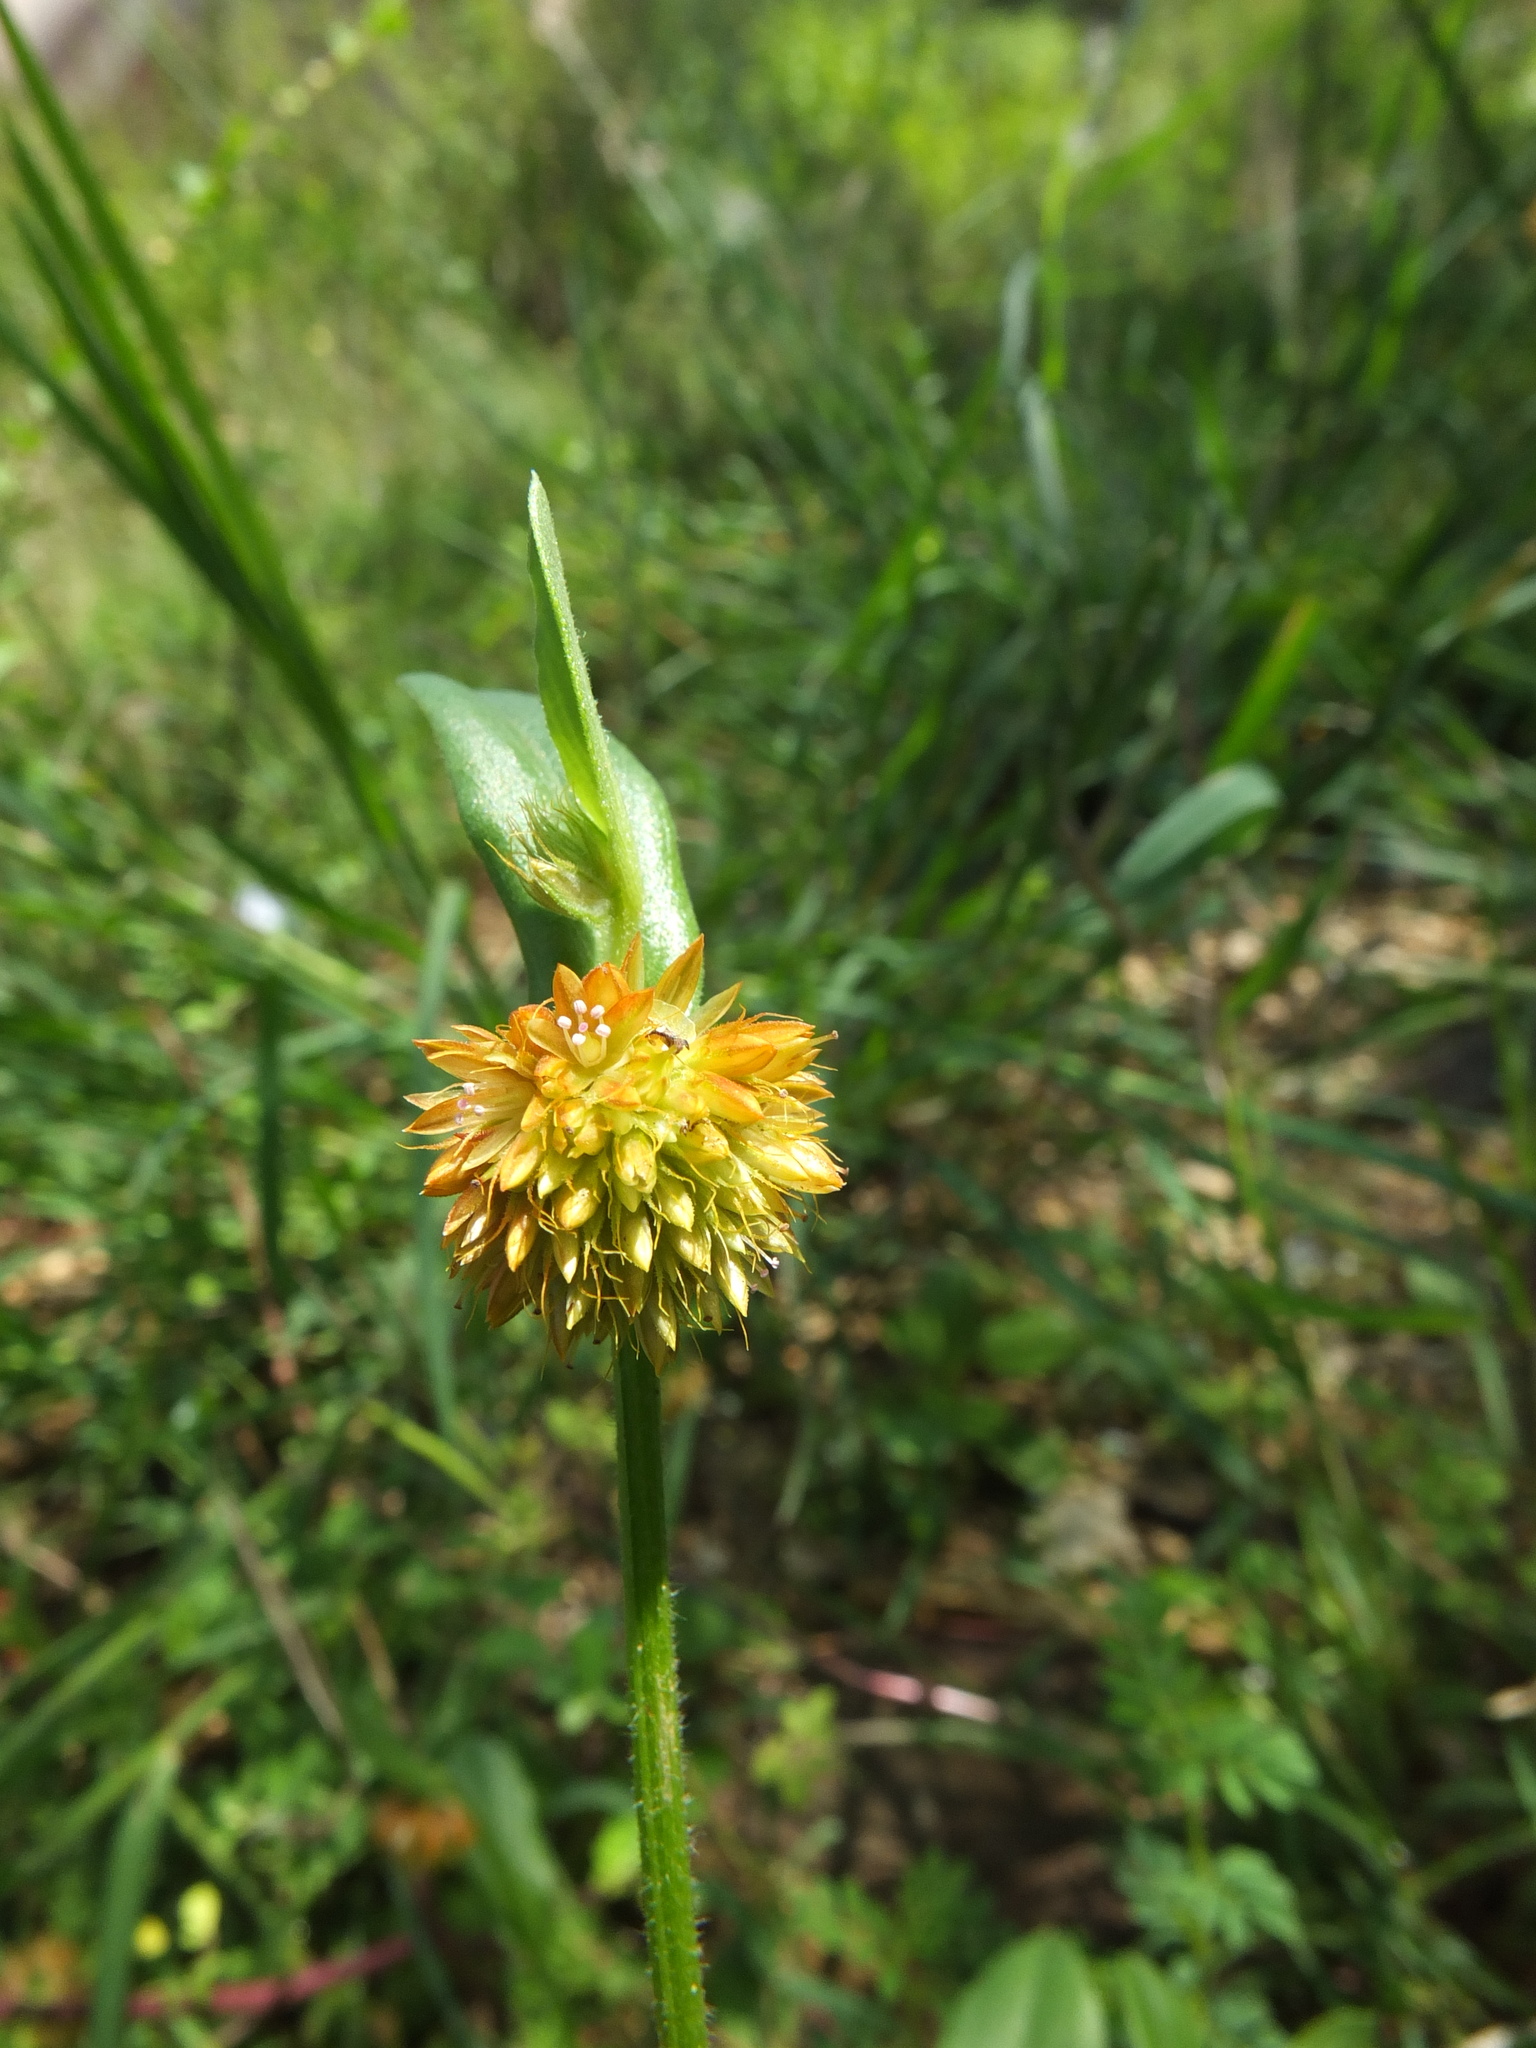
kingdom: Plantae
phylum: Tracheophyta
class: Magnoliopsida
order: Caryophyllales
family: Amaranthaceae
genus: Allmania
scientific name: Allmania nodiflora
